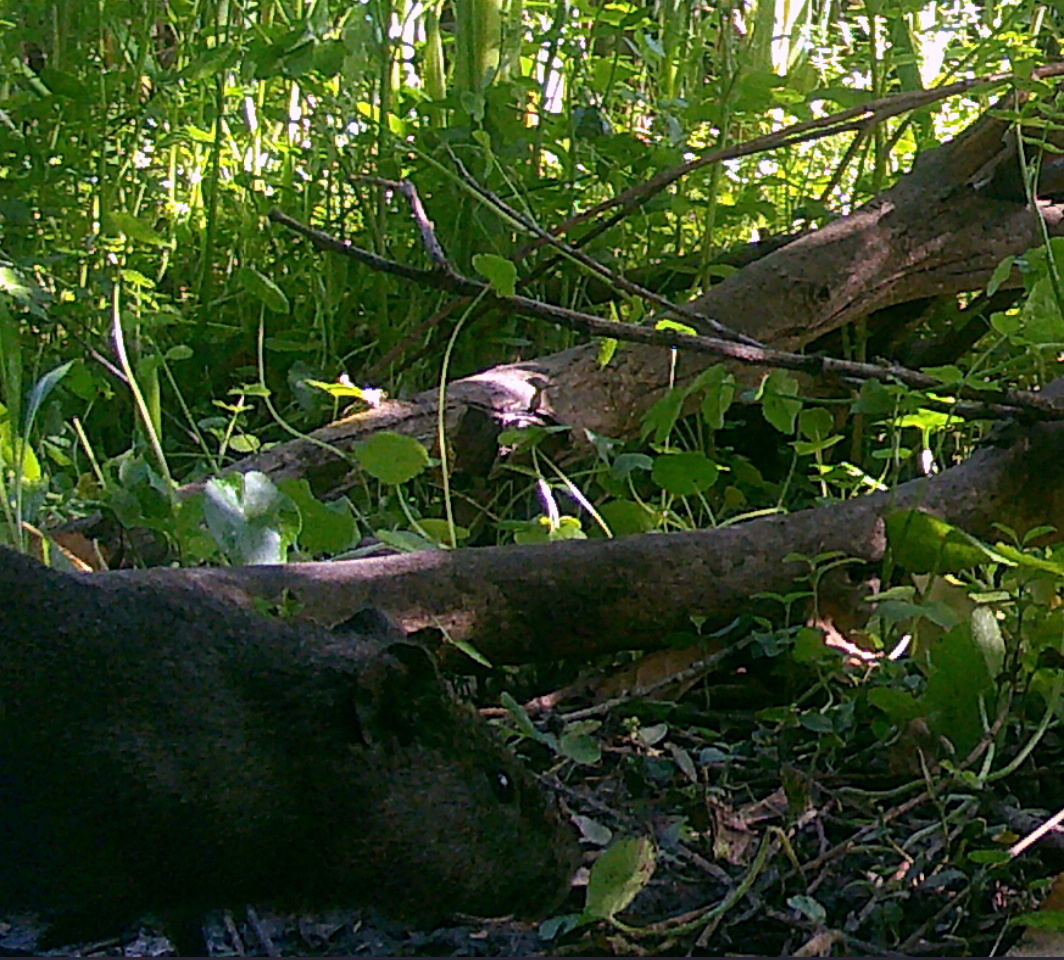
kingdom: Animalia
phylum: Chordata
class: Mammalia
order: Rodentia
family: Caviidae
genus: Cavia
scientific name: Cavia aperea
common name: Brazilian guinea pig
